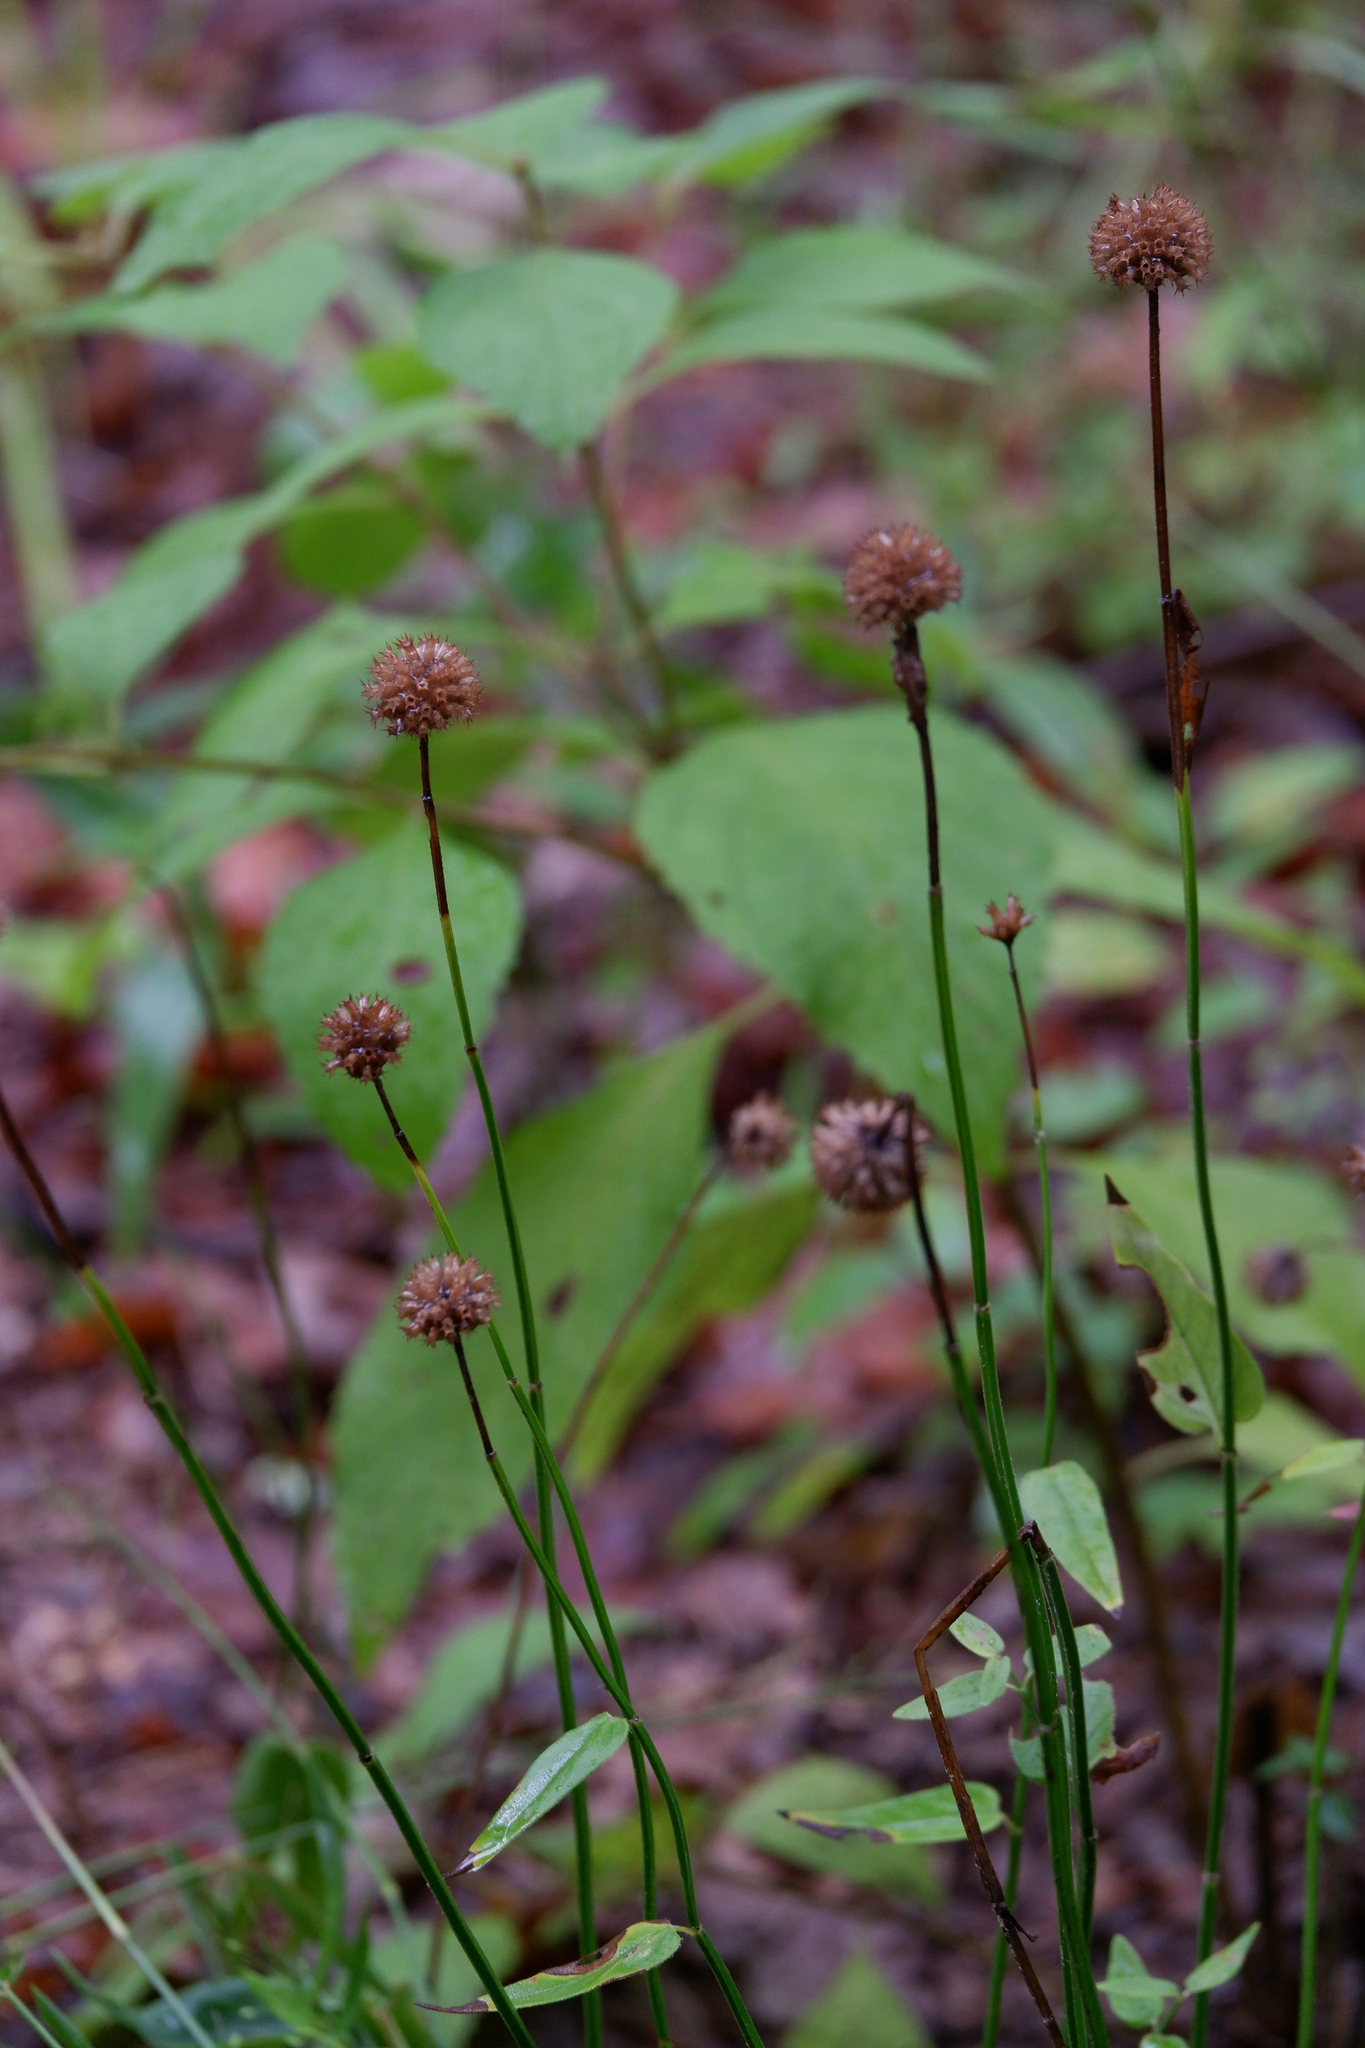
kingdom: Plantae
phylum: Tracheophyta
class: Magnoliopsida
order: Lamiales
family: Lamiaceae
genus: Monarda
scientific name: Monarda russeliana
